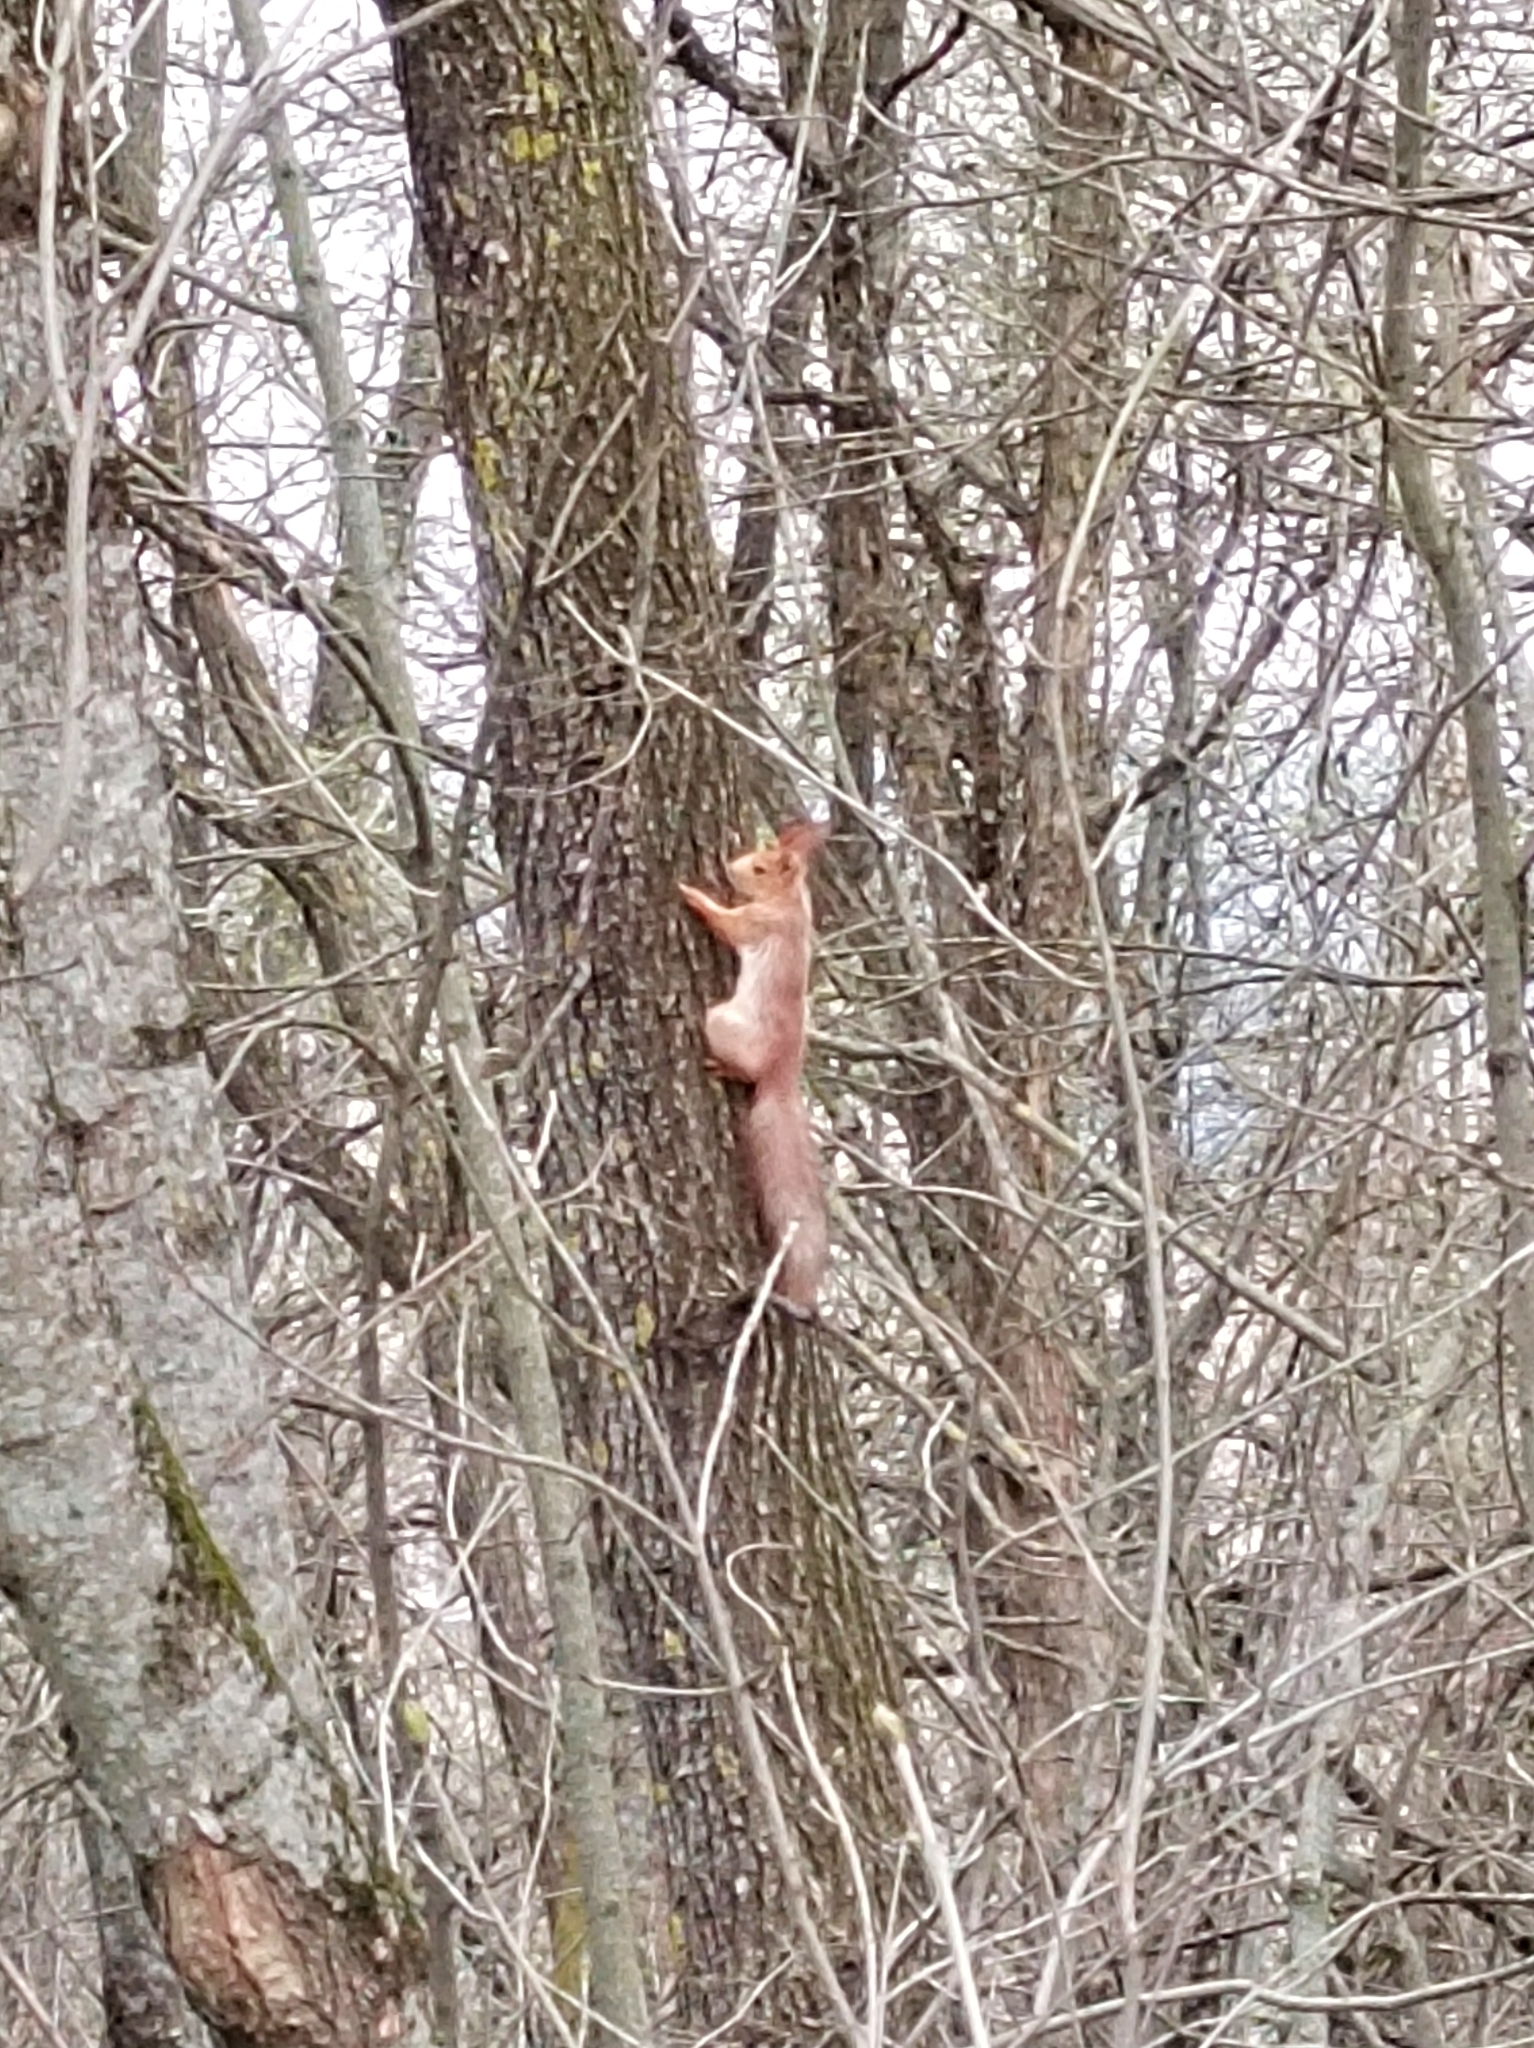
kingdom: Animalia
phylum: Chordata
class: Mammalia
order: Rodentia
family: Sciuridae
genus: Sciurus
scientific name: Sciurus vulgaris
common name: Eurasian red squirrel
